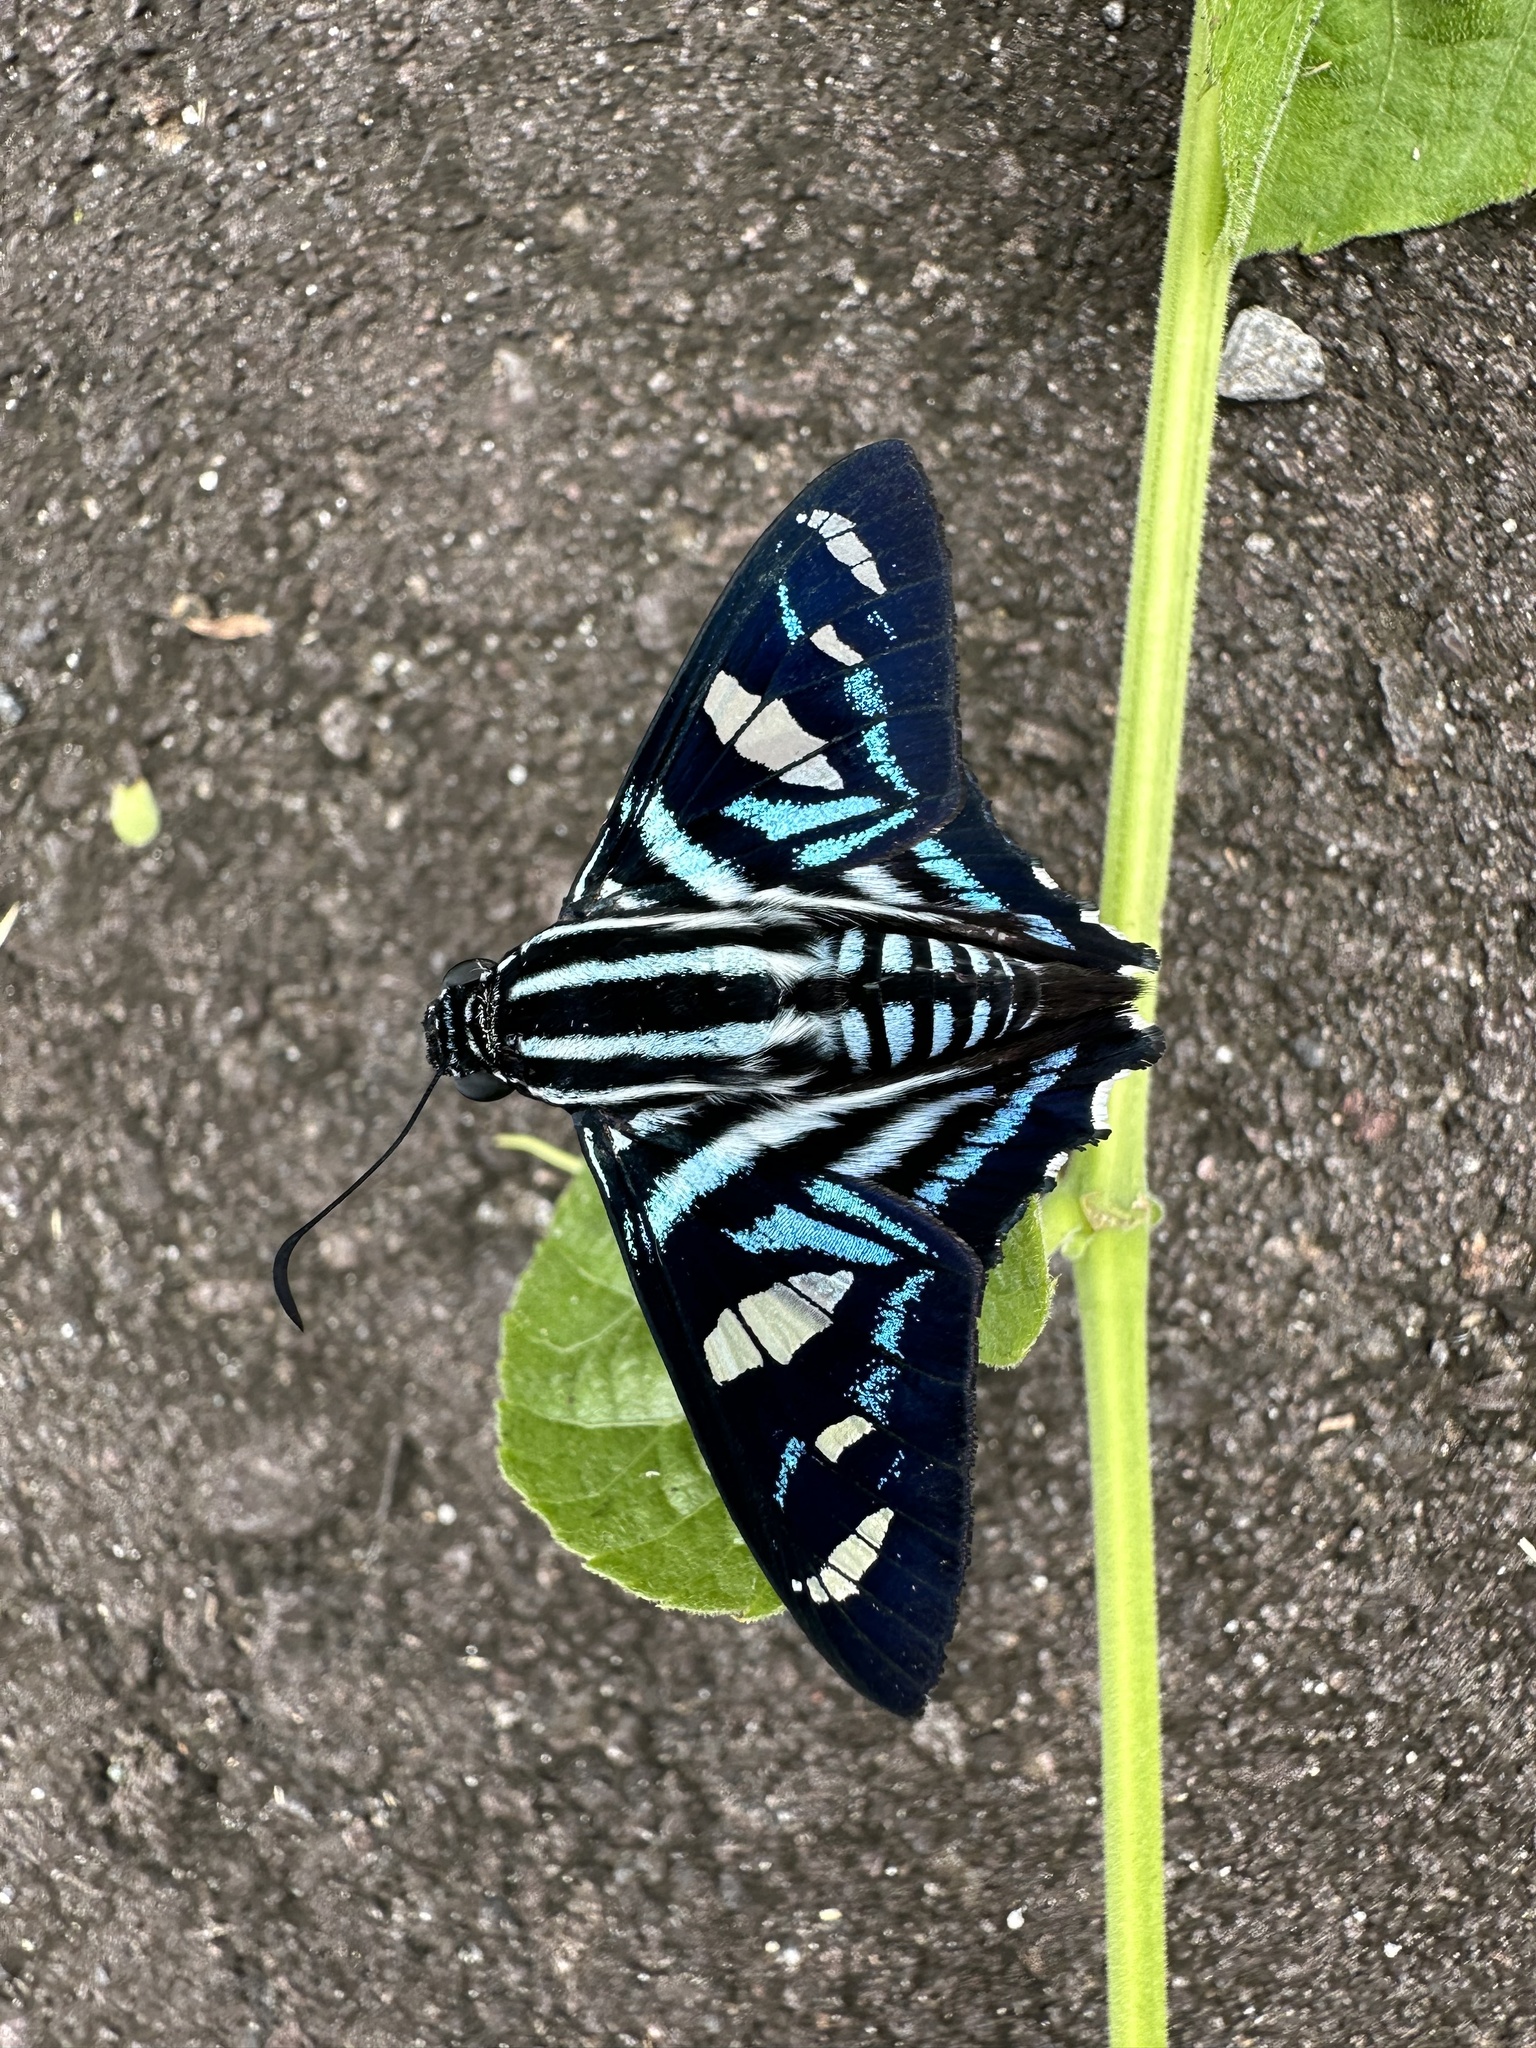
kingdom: Animalia
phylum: Arthropoda
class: Insecta
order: Lepidoptera
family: Hesperiidae
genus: Elbella
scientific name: Elbella azeta
